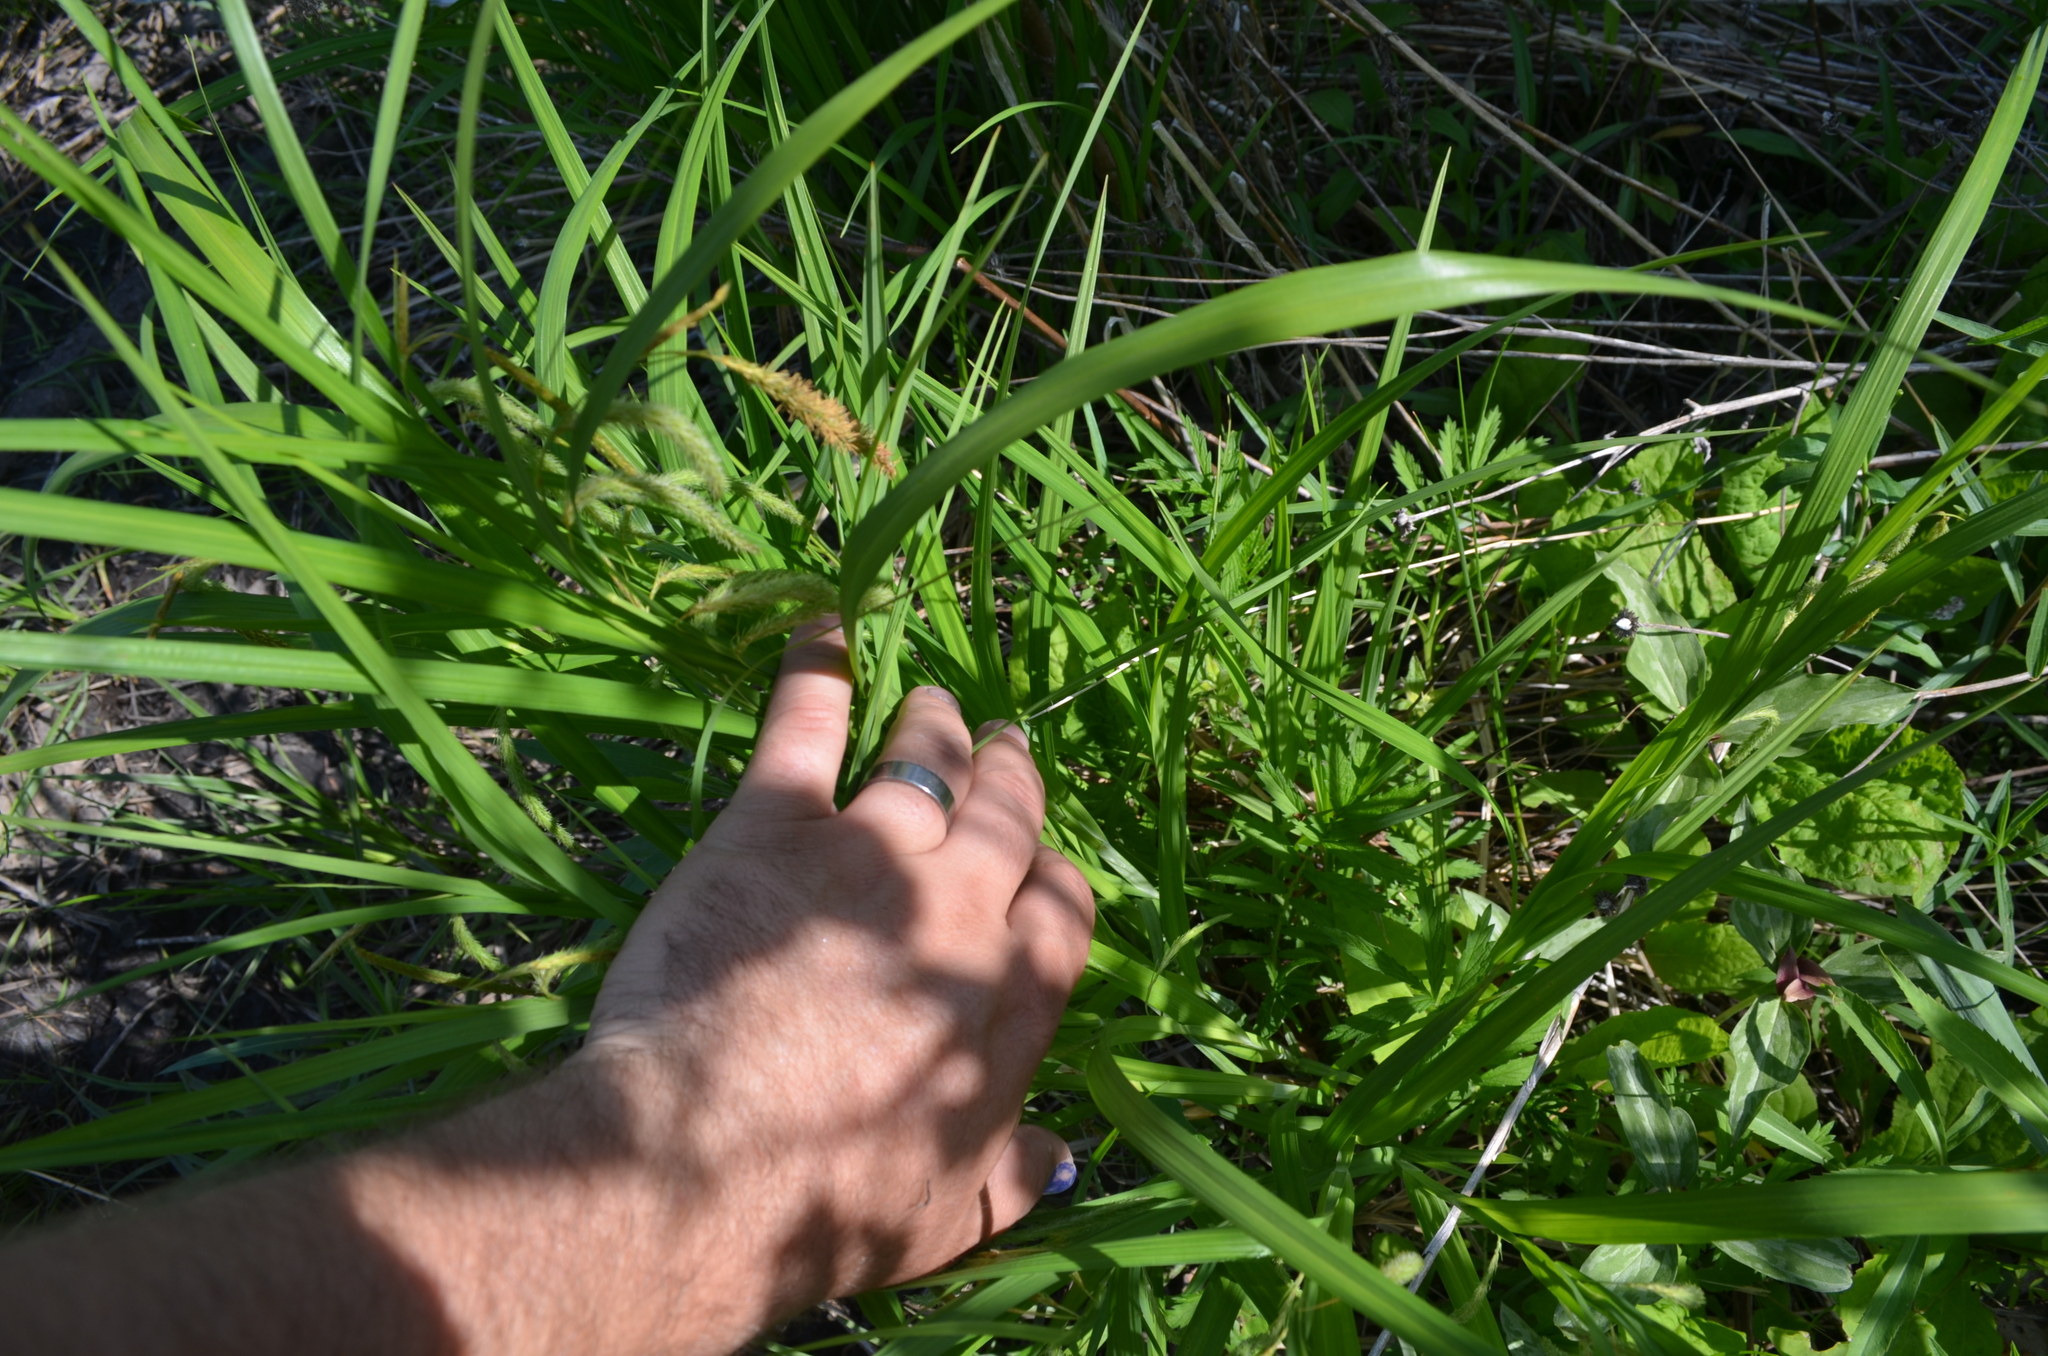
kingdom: Plantae
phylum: Tracheophyta
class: Liliopsida
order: Poales
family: Cyperaceae
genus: Carex
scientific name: Carex crinita
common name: Fringed sedge
